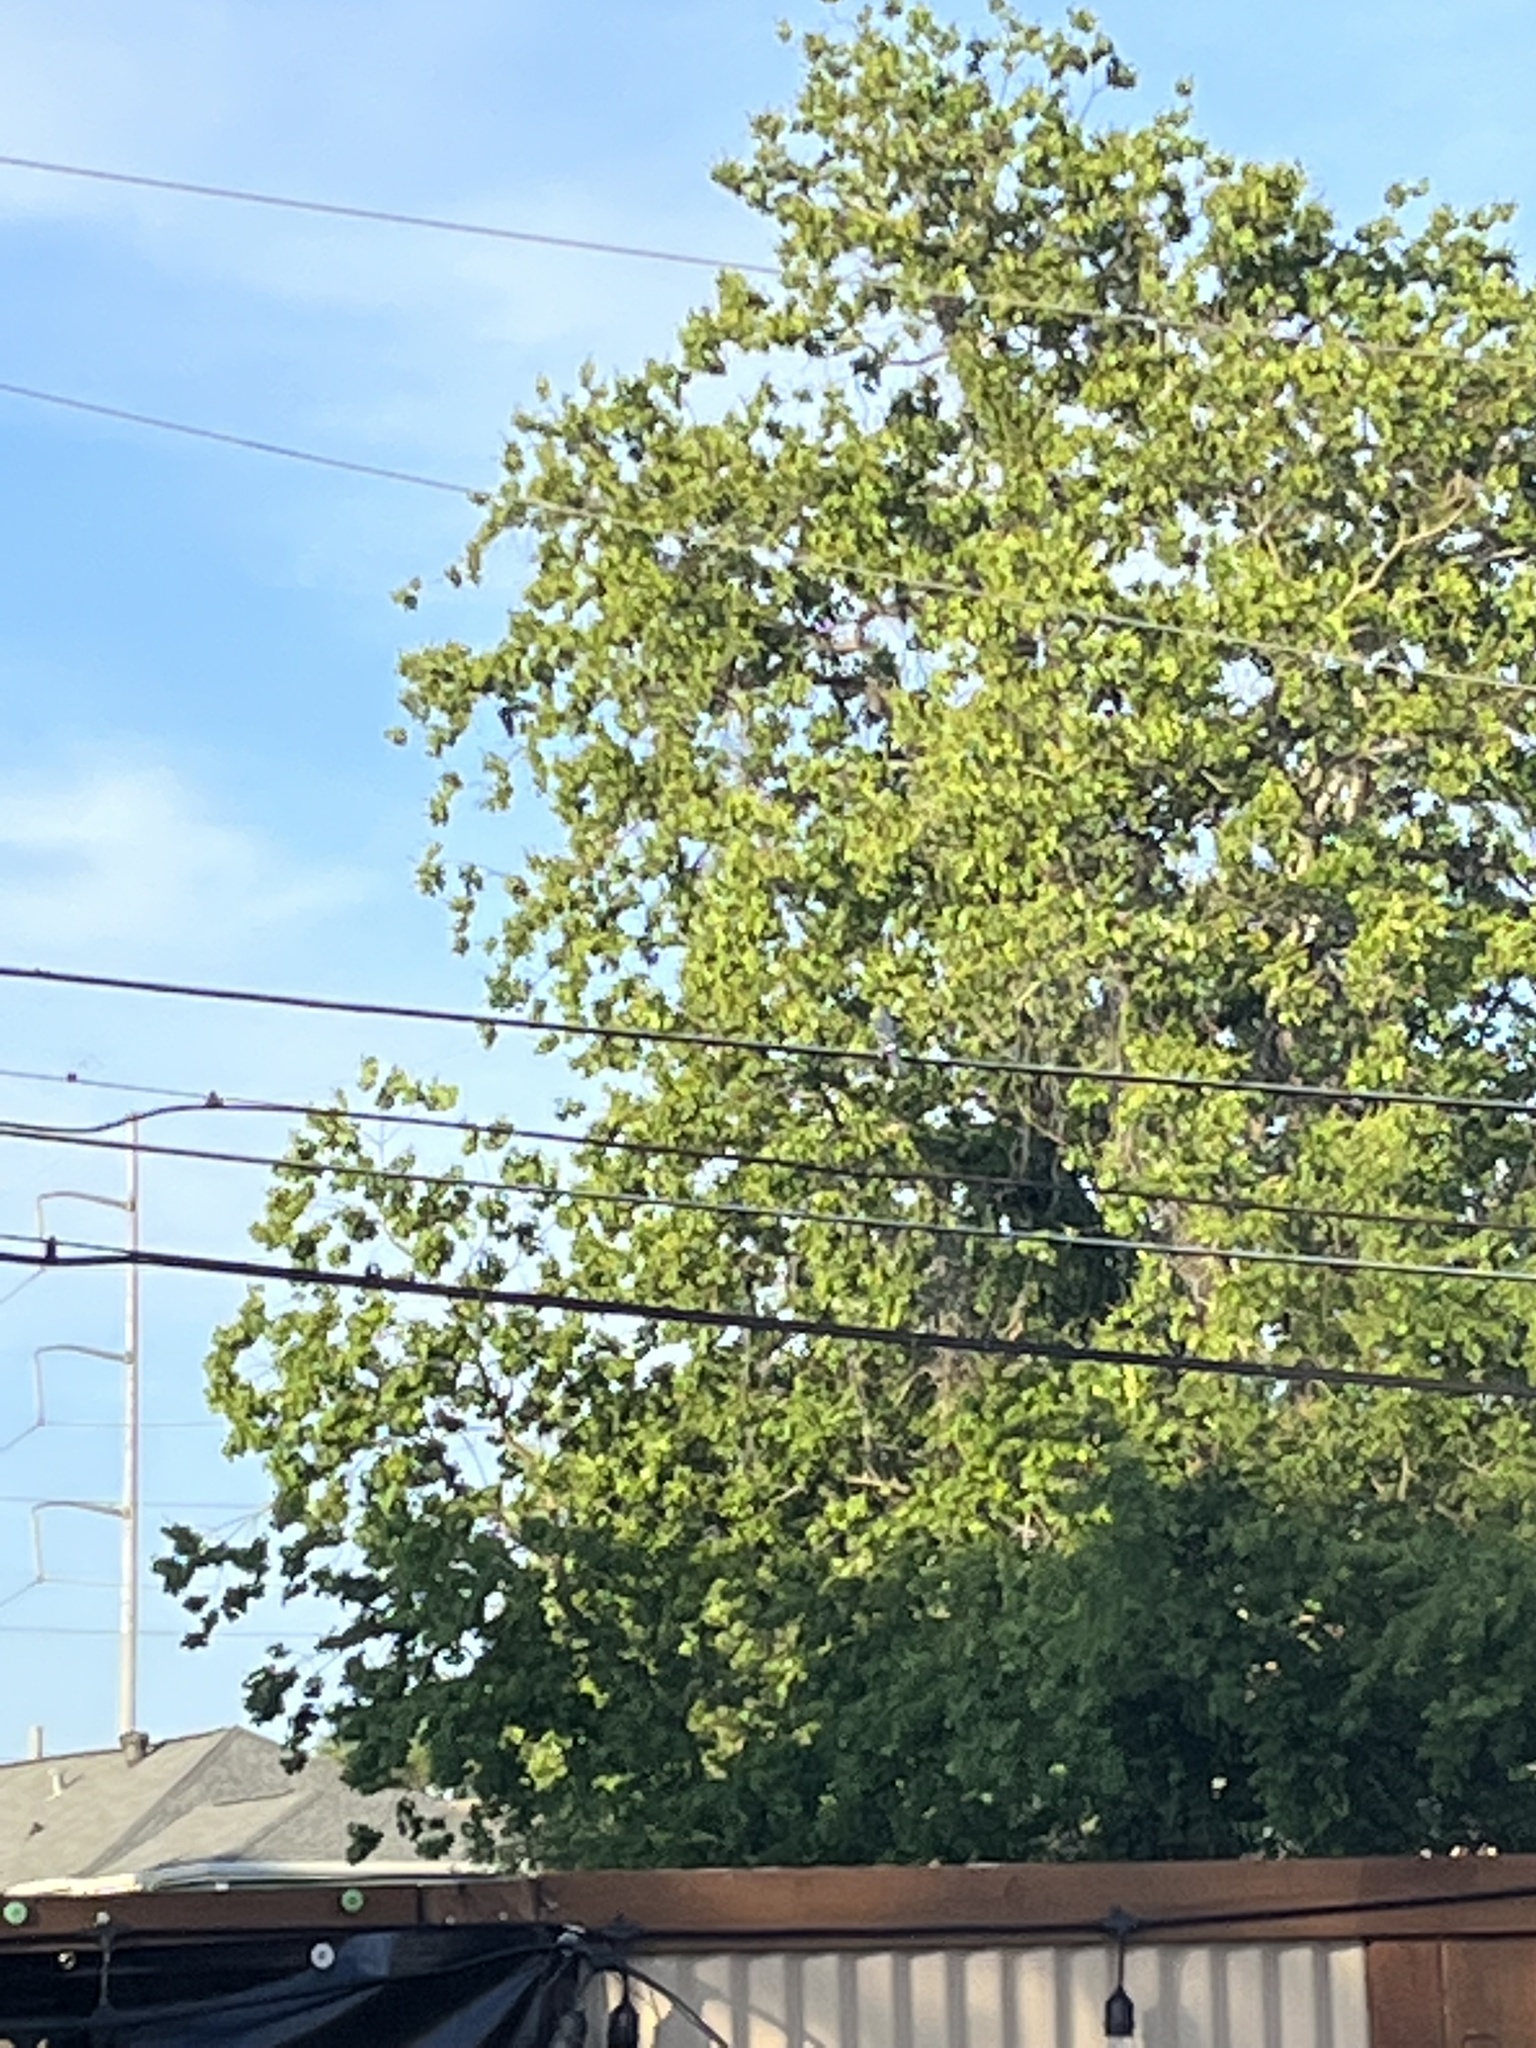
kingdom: Animalia
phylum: Chordata
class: Aves
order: Passeriformes
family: Corvidae
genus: Cyanocitta
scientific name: Cyanocitta cristata
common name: Blue jay
